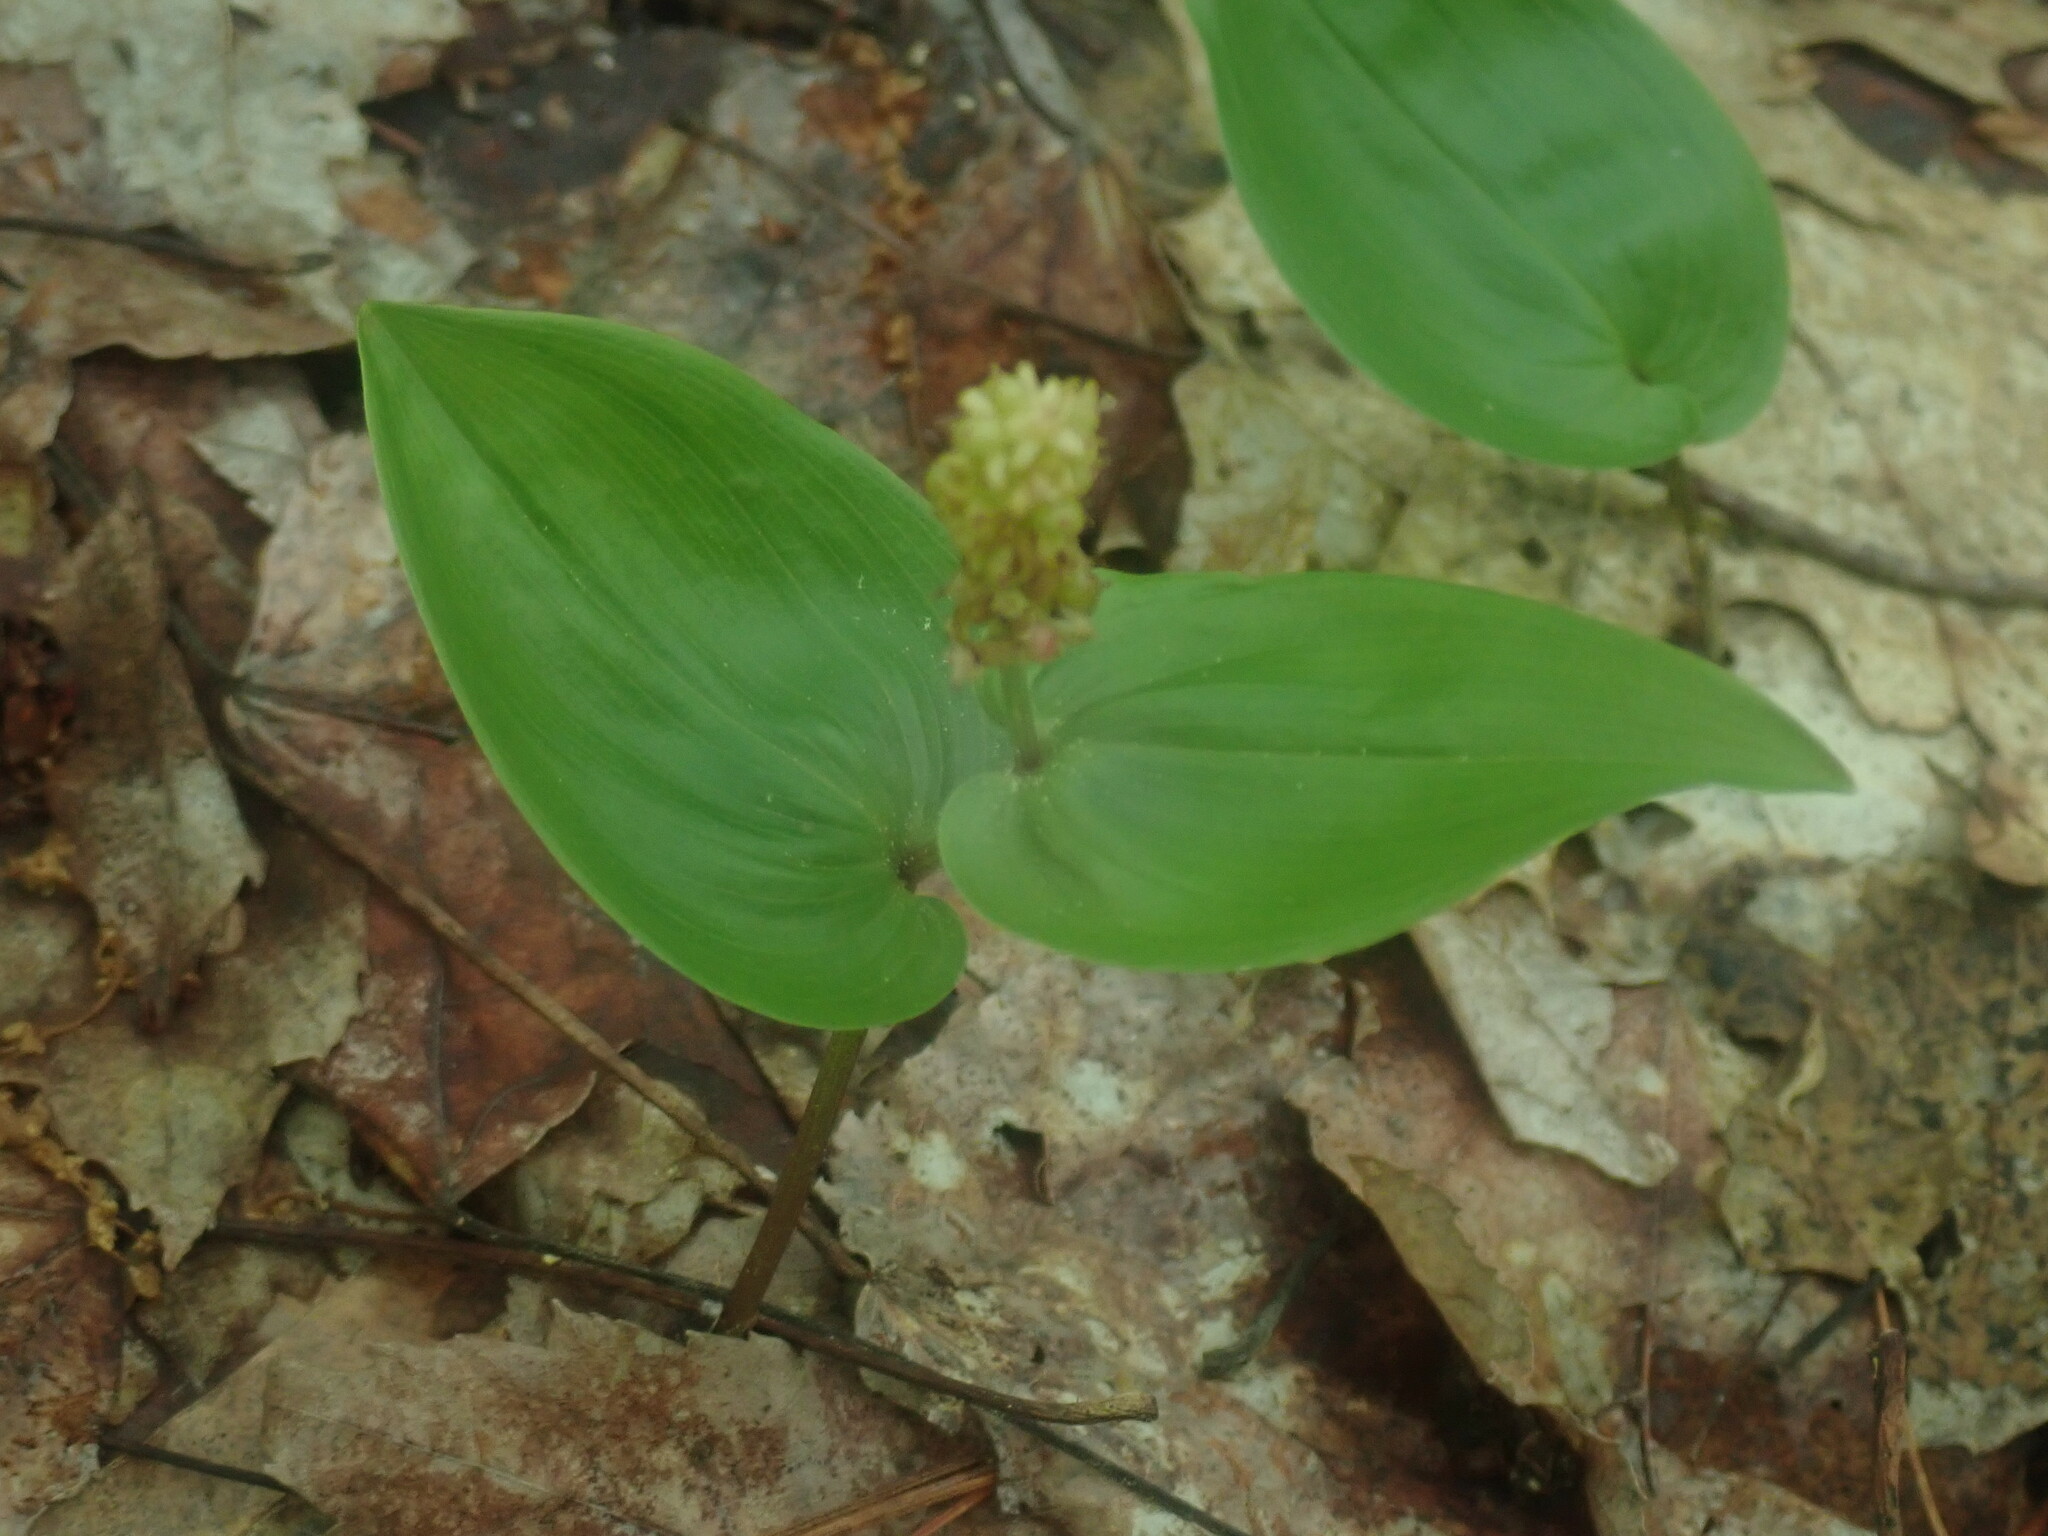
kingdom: Plantae
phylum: Tracheophyta
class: Liliopsida
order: Asparagales
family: Asparagaceae
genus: Maianthemum
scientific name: Maianthemum canadense
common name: False lily-of-the-valley
